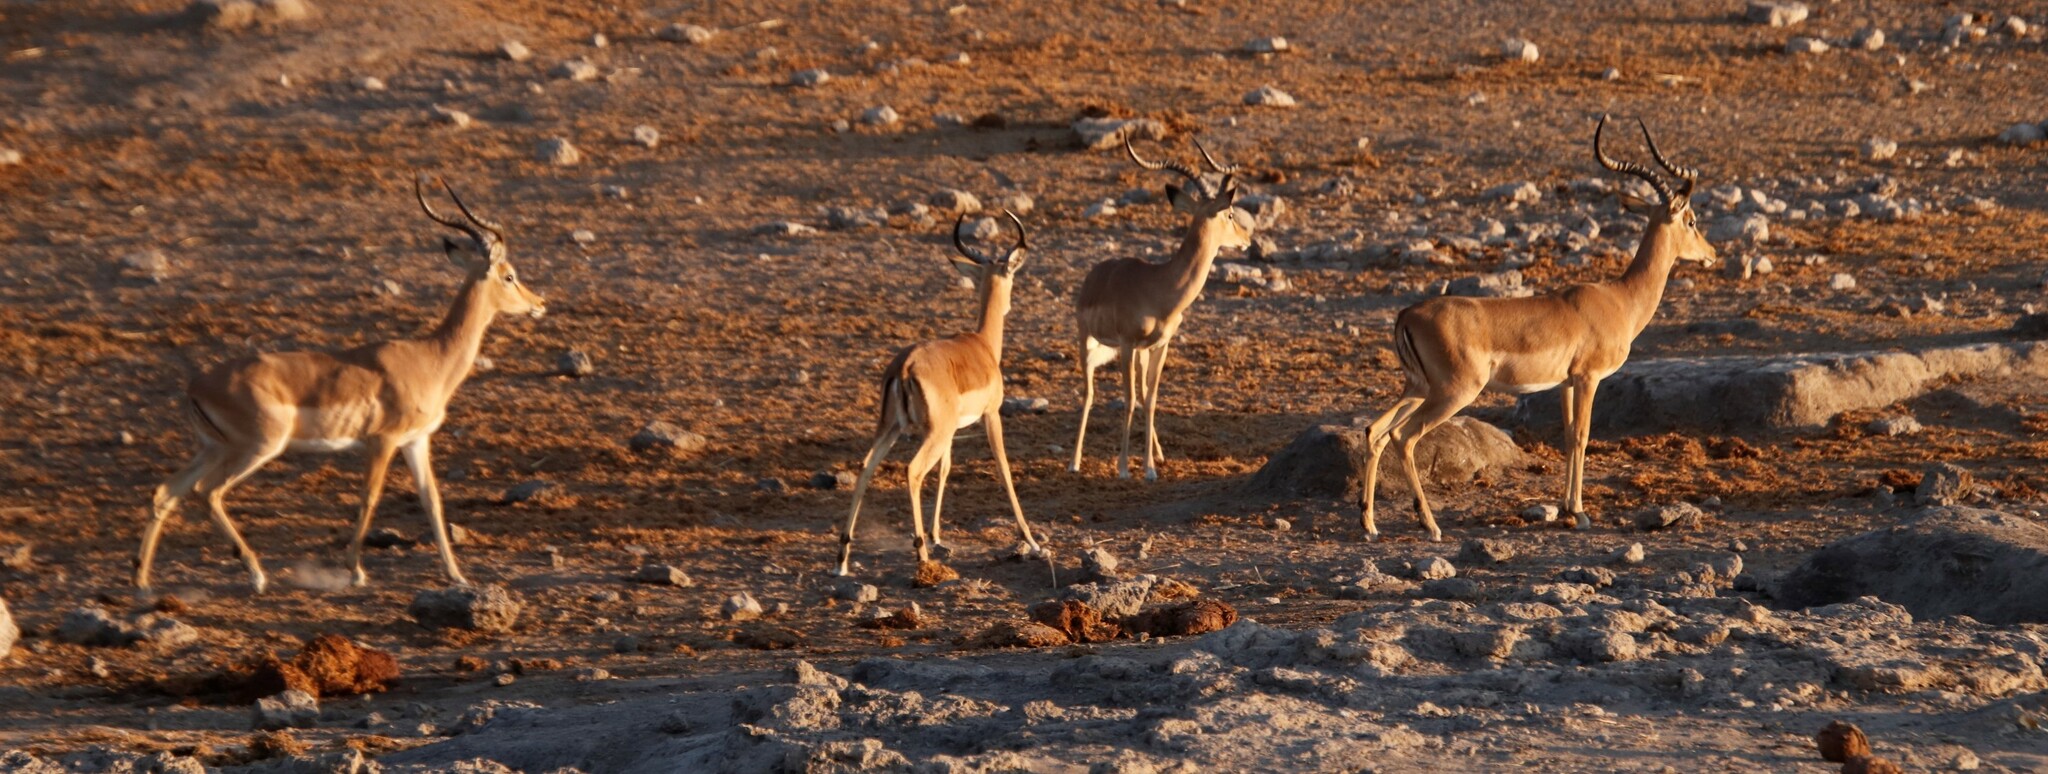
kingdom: Animalia
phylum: Chordata
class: Mammalia
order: Artiodactyla
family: Bovidae
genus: Aepyceros
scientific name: Aepyceros melampus
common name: Impala
